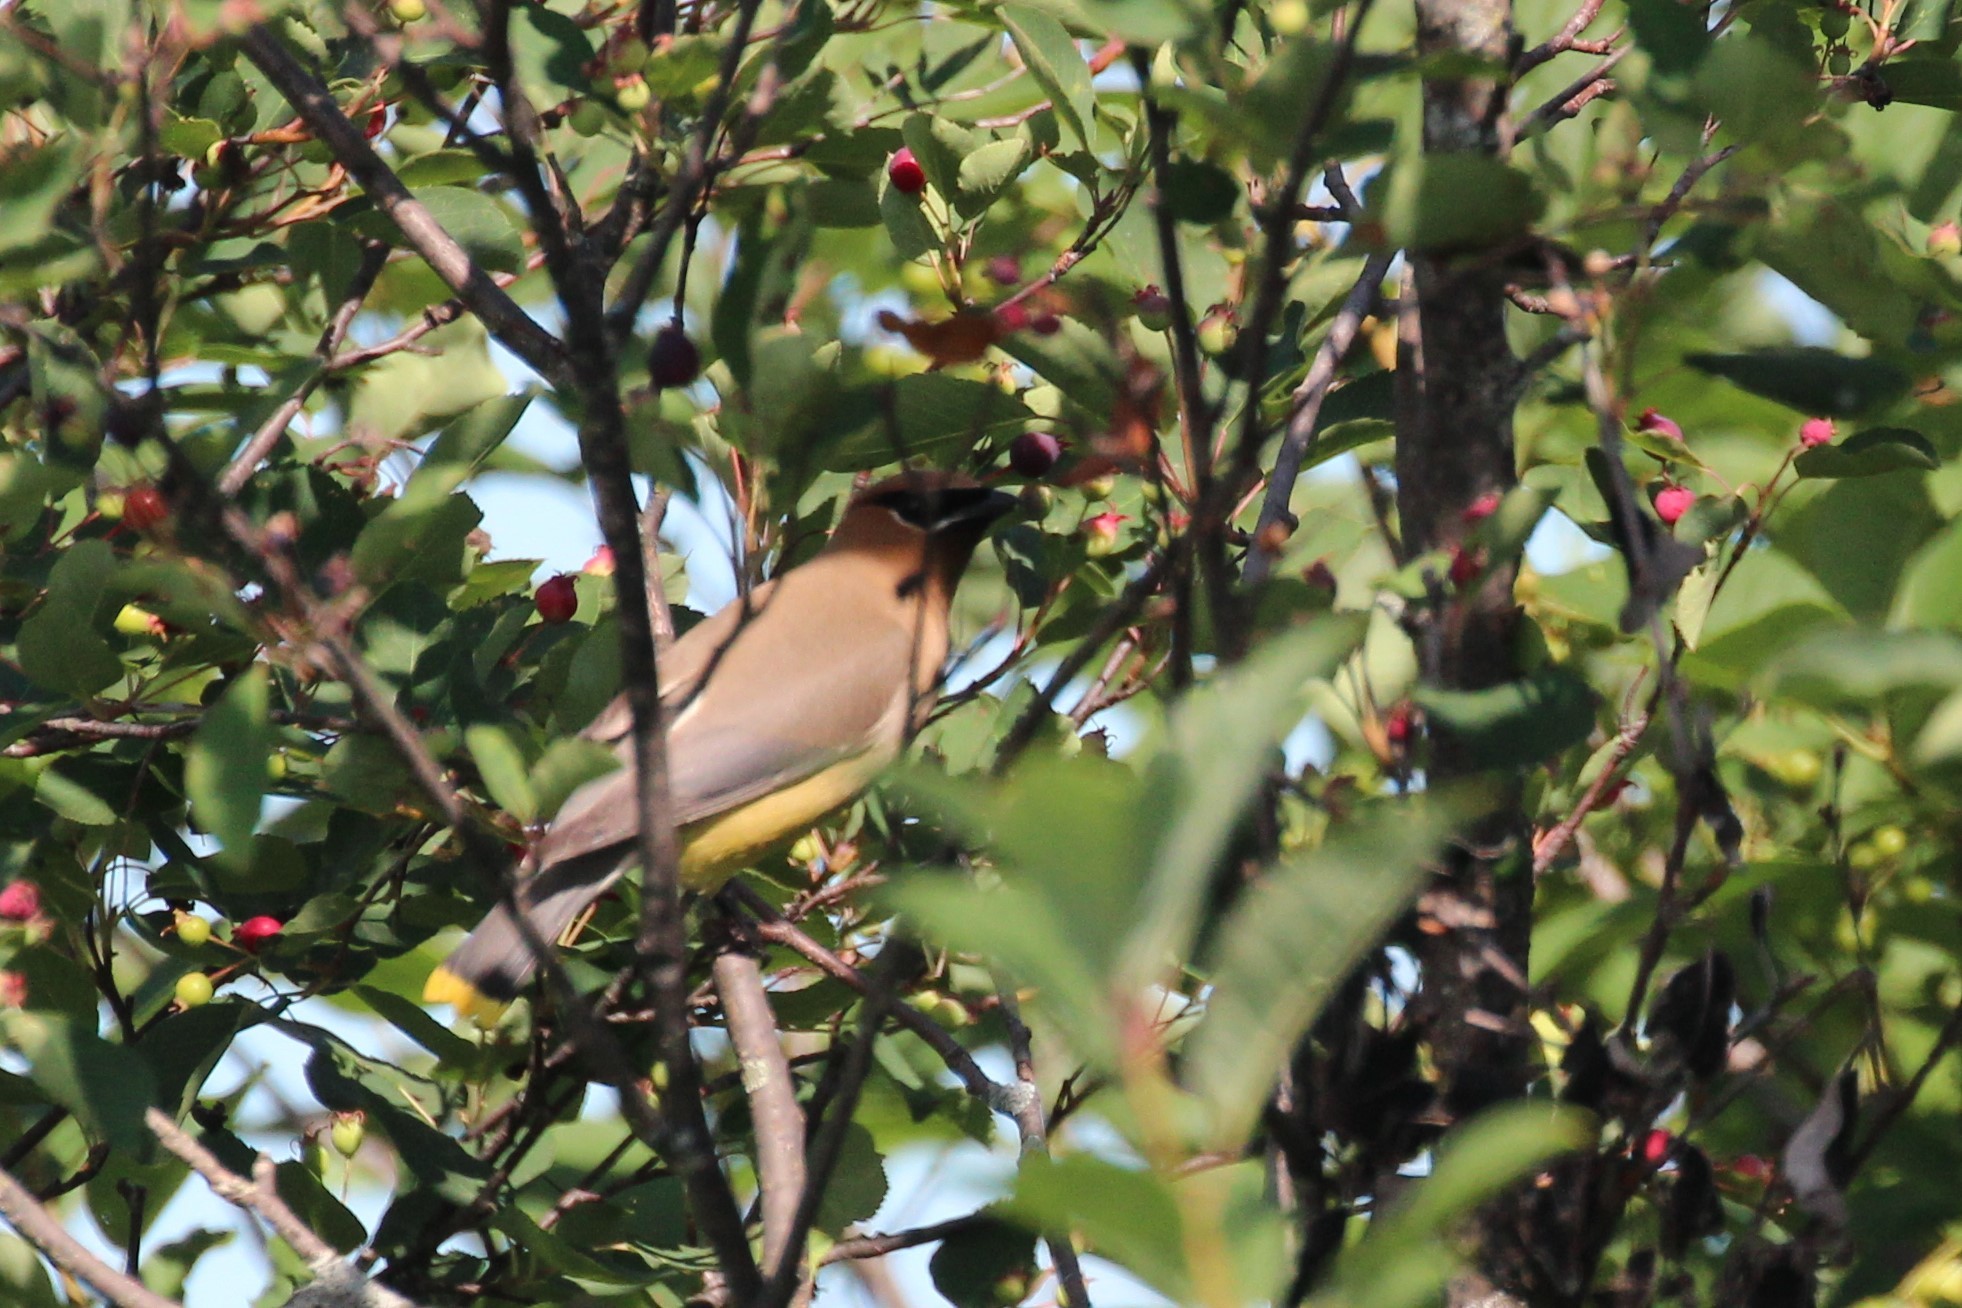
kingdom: Animalia
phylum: Chordata
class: Aves
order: Passeriformes
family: Bombycillidae
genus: Bombycilla
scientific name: Bombycilla cedrorum
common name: Cedar waxwing
